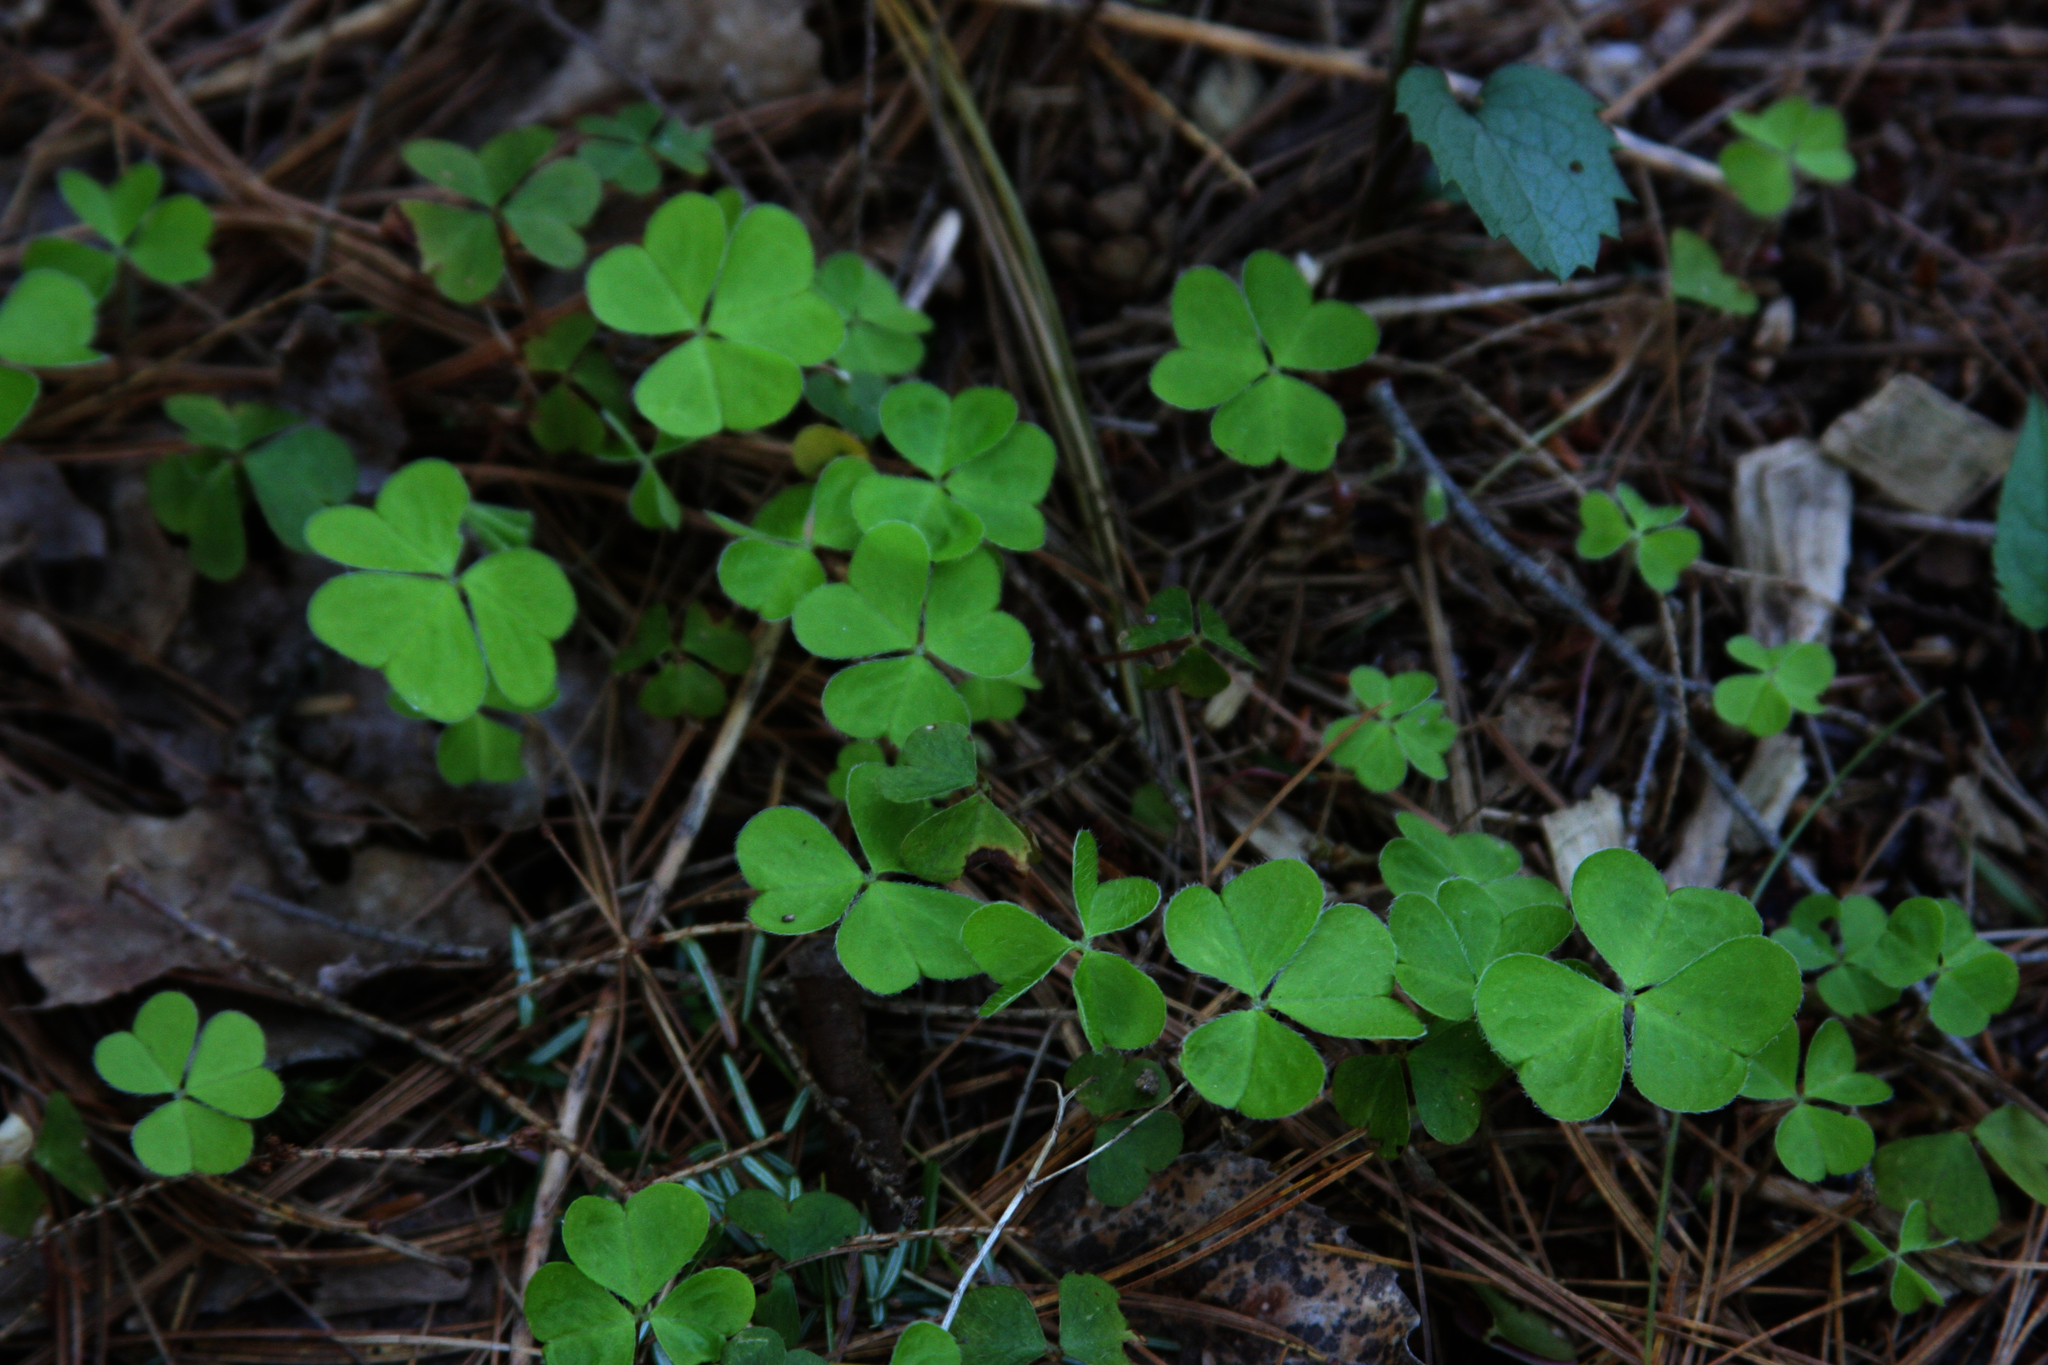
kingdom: Plantae
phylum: Tracheophyta
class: Magnoliopsida
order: Oxalidales
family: Oxalidaceae
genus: Oxalis
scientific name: Oxalis montana
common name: American wood-sorrel
